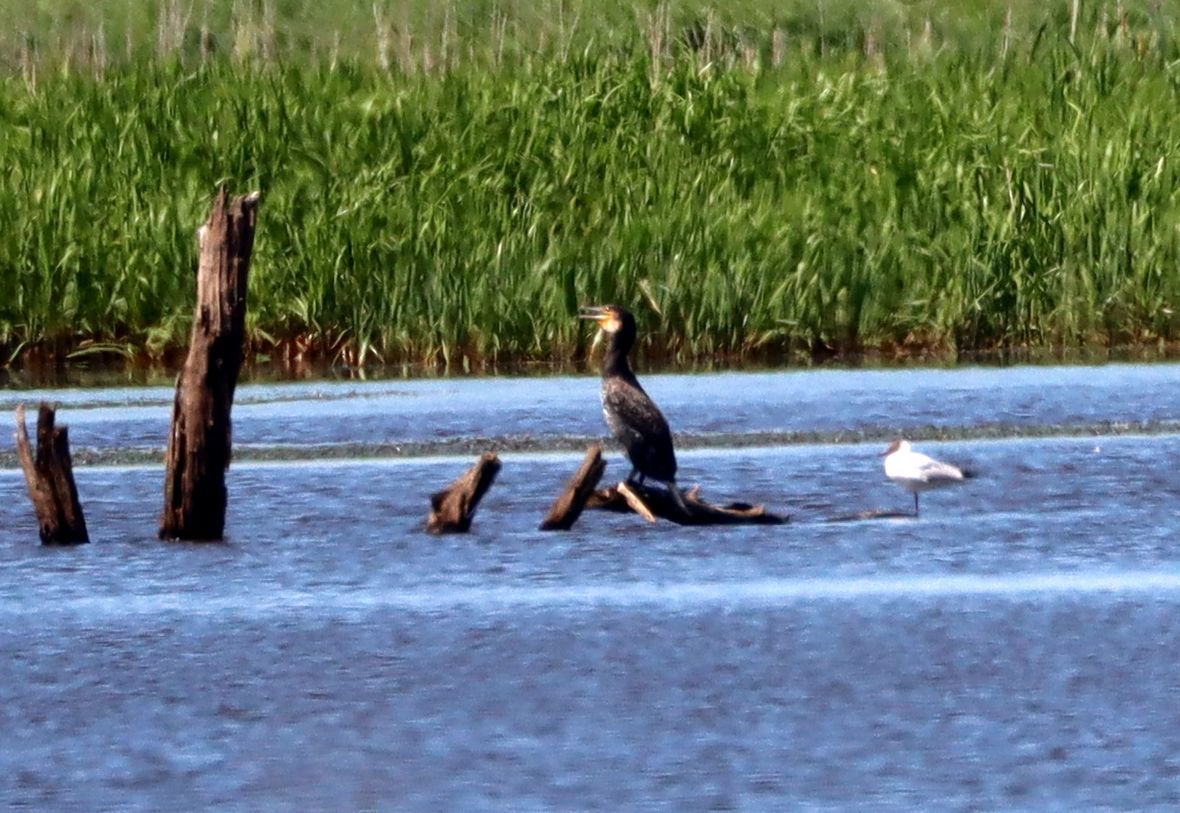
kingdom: Animalia
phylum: Chordata
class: Aves
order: Suliformes
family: Phalacrocoracidae
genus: Phalacrocorax
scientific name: Phalacrocorax carbo
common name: Great cormorant
